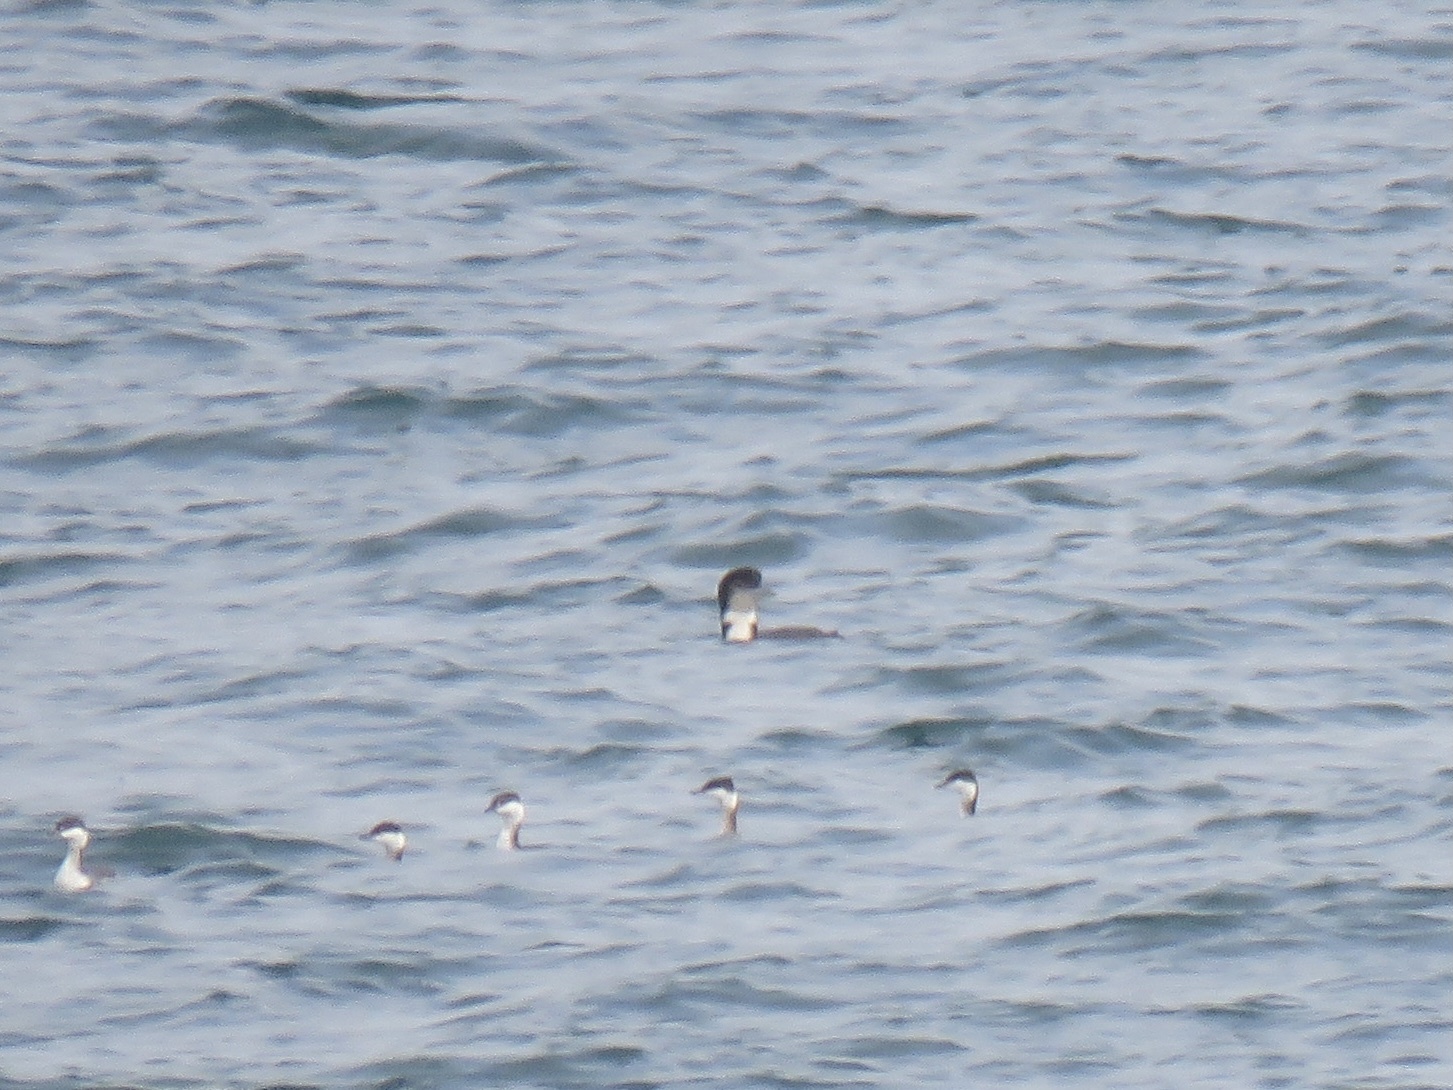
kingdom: Animalia
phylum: Chordata
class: Aves
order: Gaviiformes
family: Gaviidae
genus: Gavia
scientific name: Gavia immer
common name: Common loon
